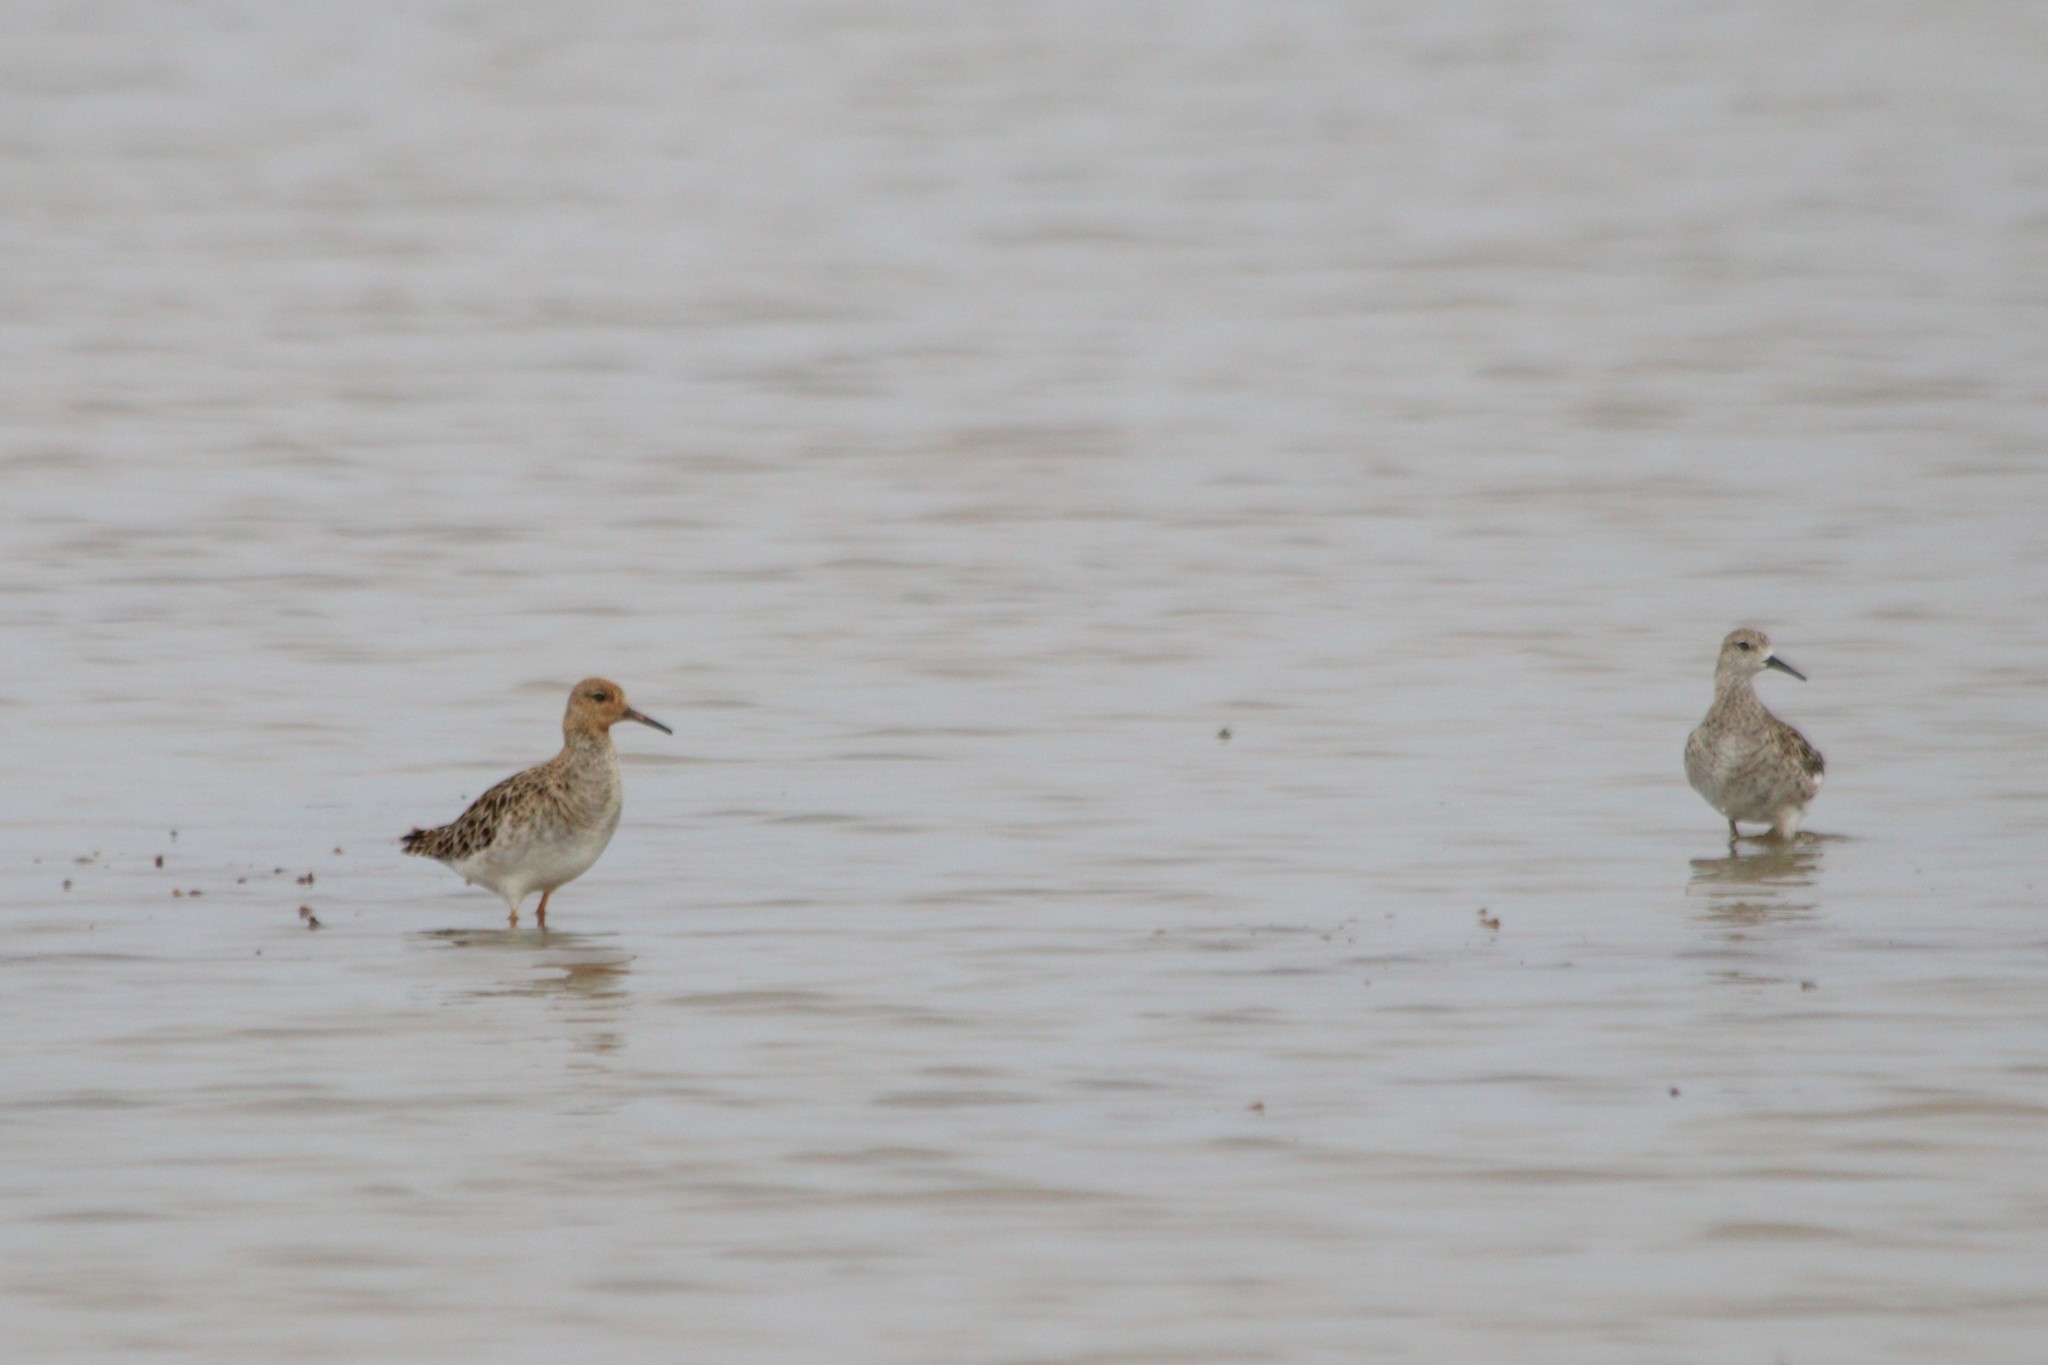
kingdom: Animalia
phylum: Chordata
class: Aves
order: Charadriiformes
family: Scolopacidae
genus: Calidris
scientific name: Calidris pugnax
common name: Ruff
